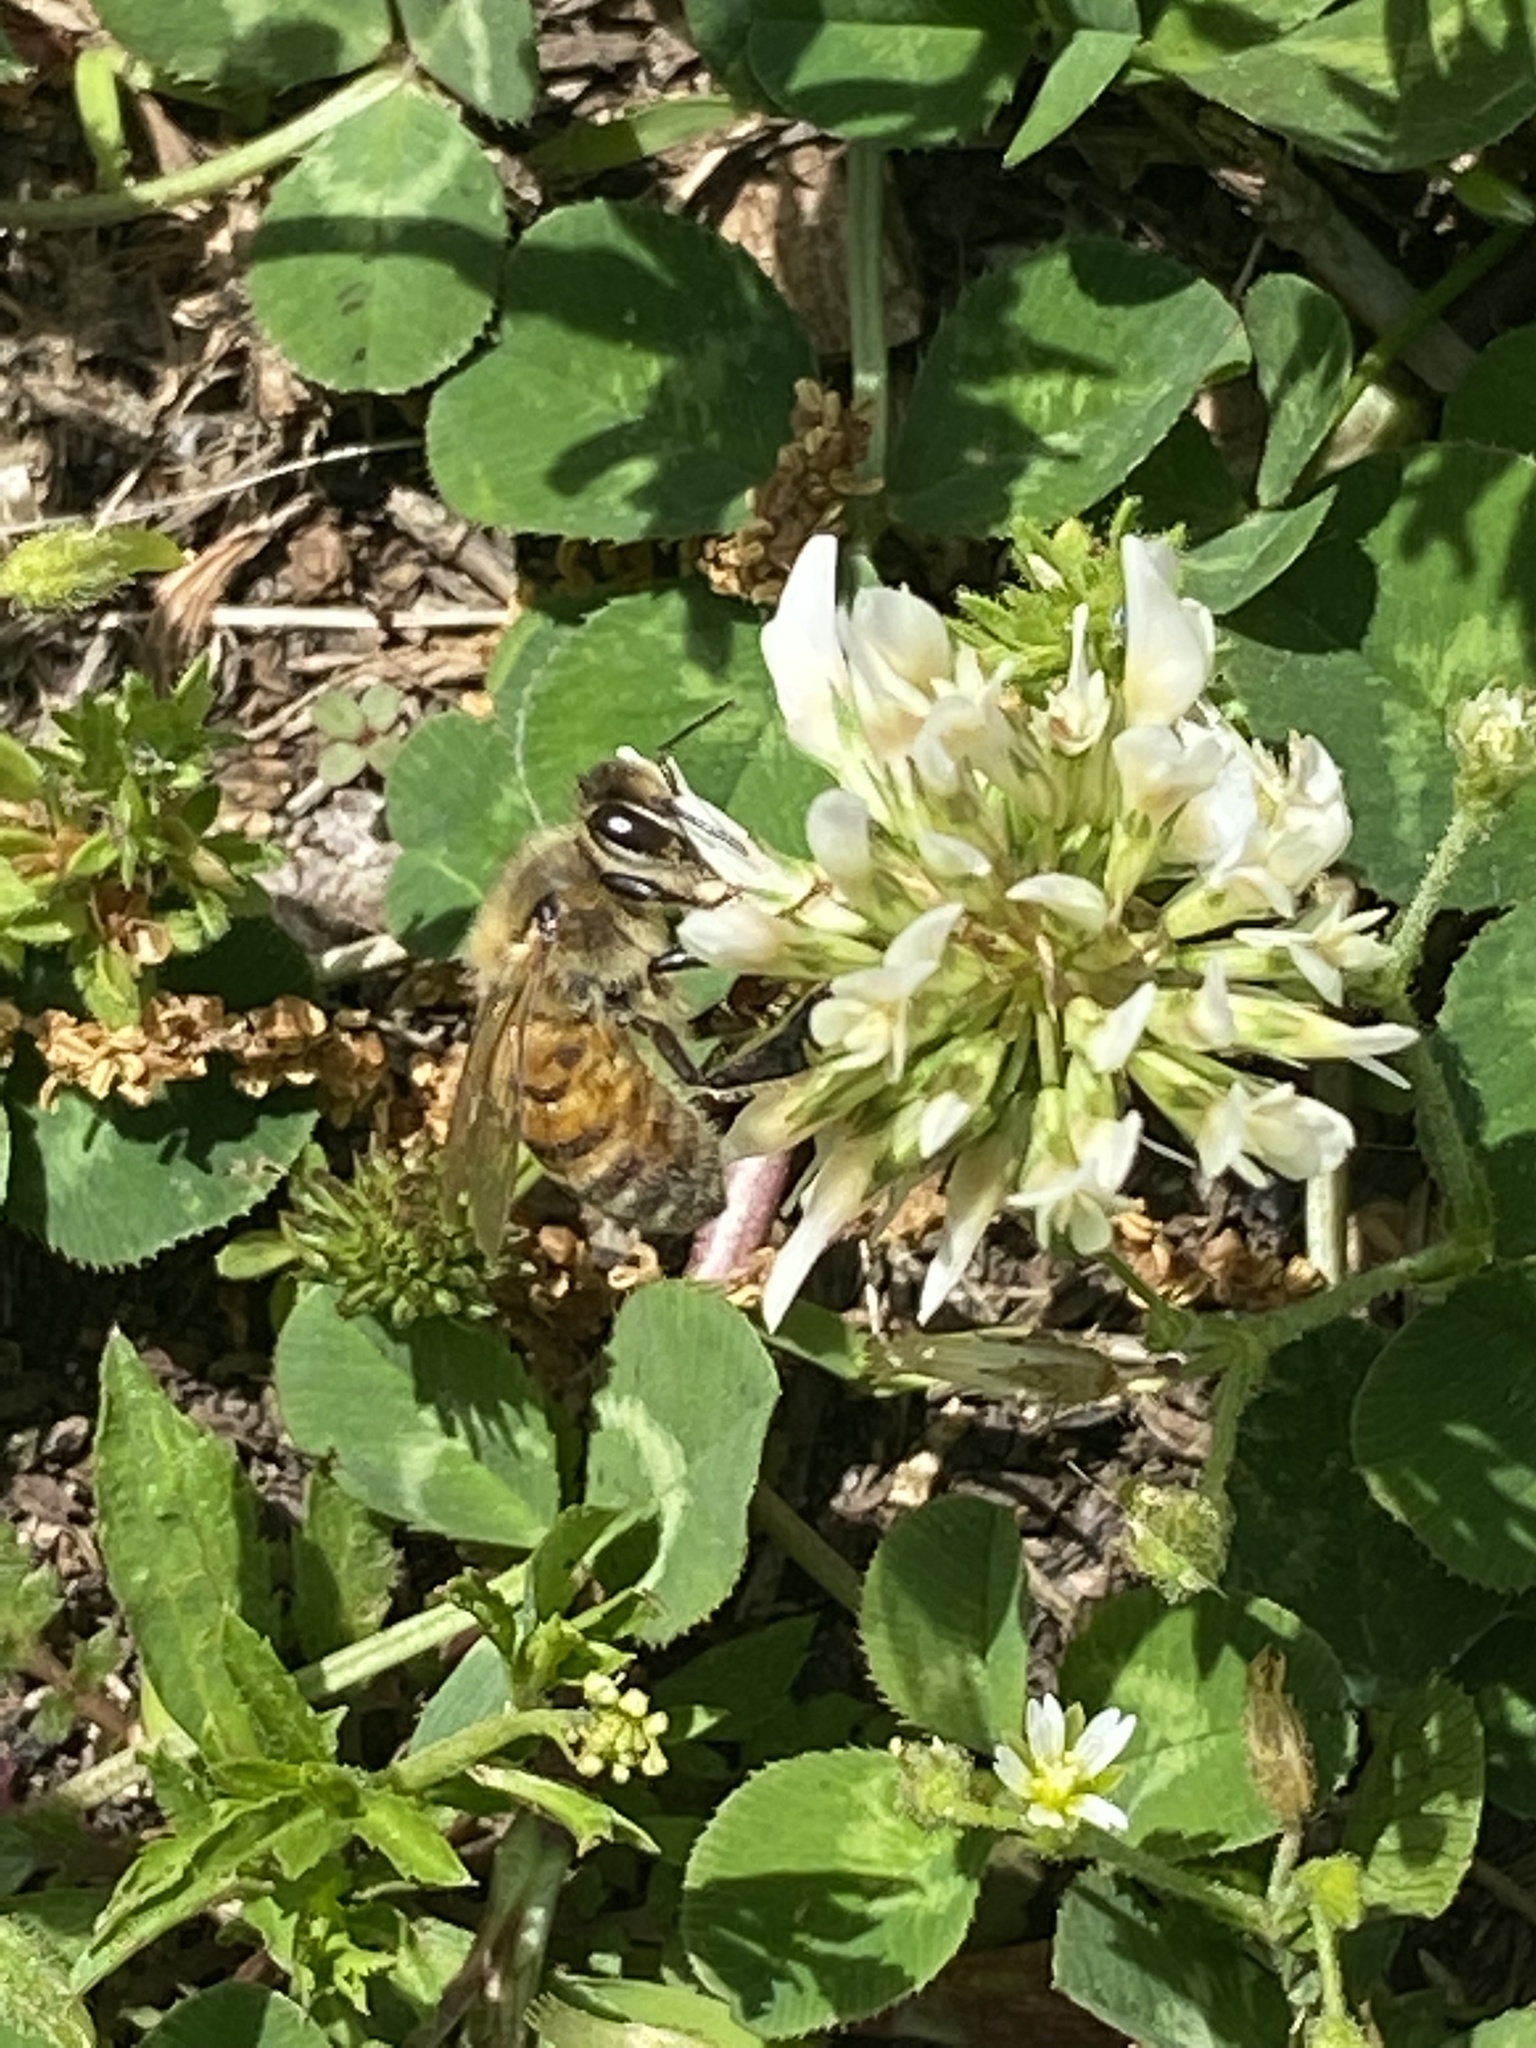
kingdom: Animalia
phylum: Arthropoda
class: Insecta
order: Hymenoptera
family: Apidae
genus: Apis
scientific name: Apis mellifera
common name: Honey bee
